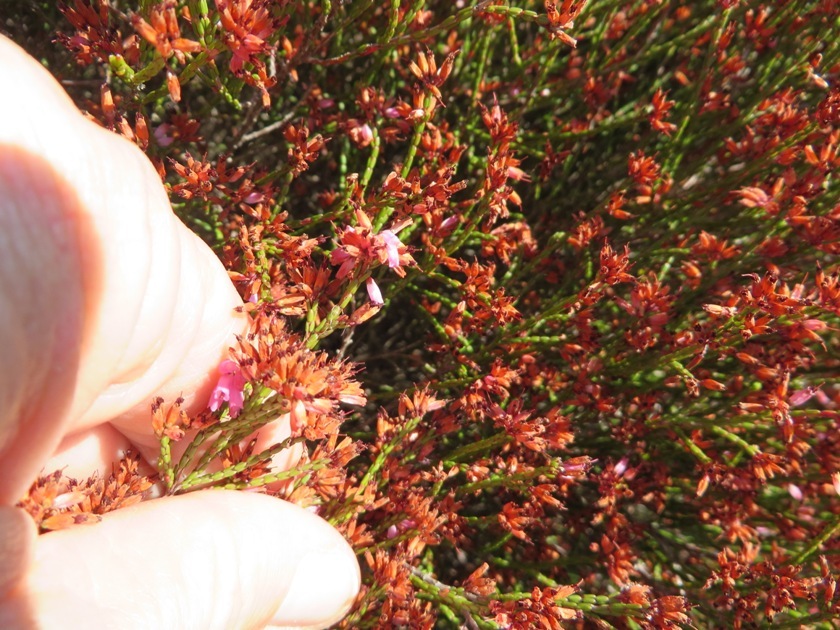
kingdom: Plantae
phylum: Tracheophyta
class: Magnoliopsida
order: Ericales
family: Ericaceae
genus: Erica
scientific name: Erica equisetifolia
